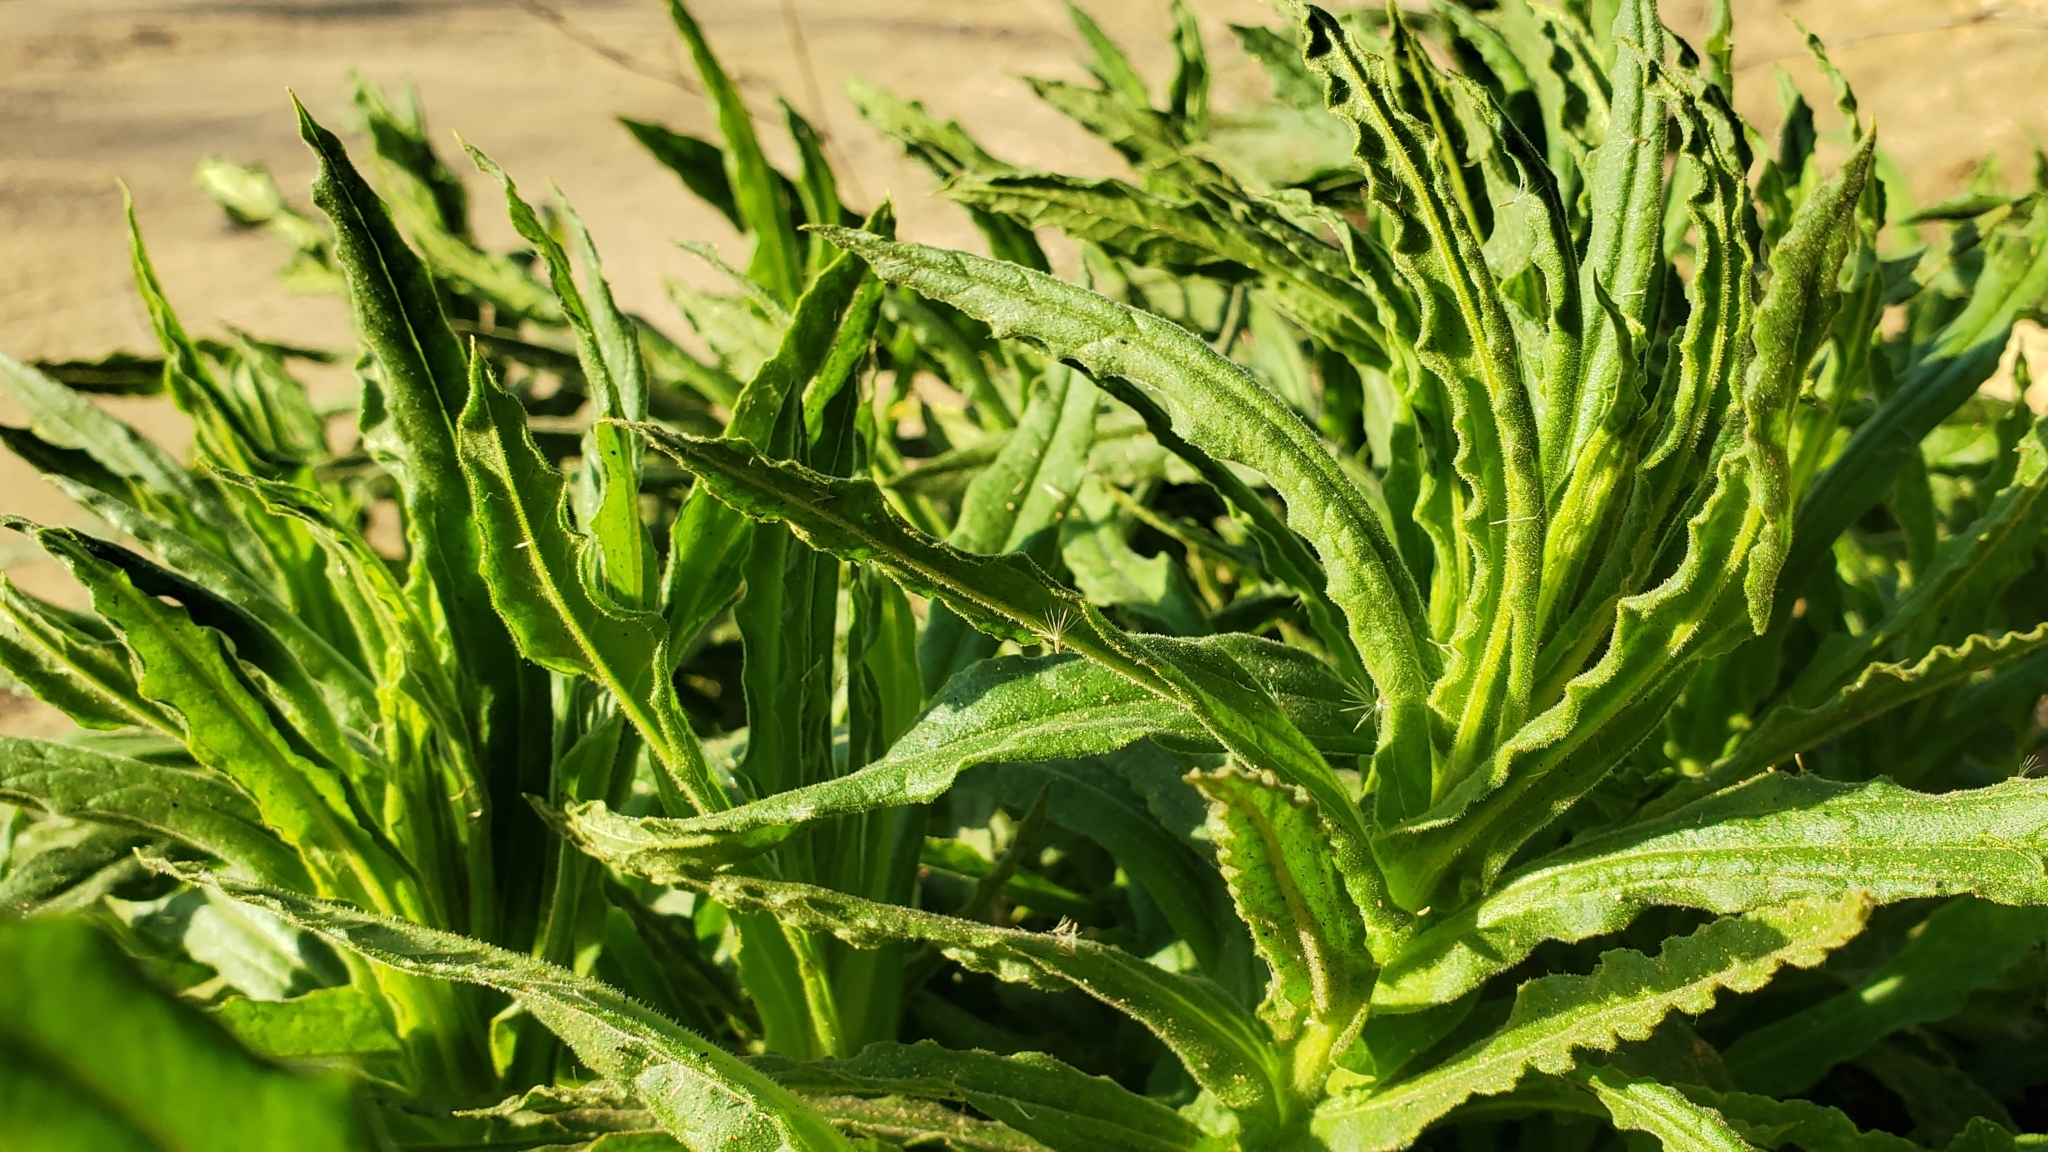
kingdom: Plantae
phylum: Tracheophyta
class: Magnoliopsida
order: Asterales
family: Asteraceae
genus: Pseudognaphalium
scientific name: Pseudognaphalium californicum
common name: California rabbit-tobacco
